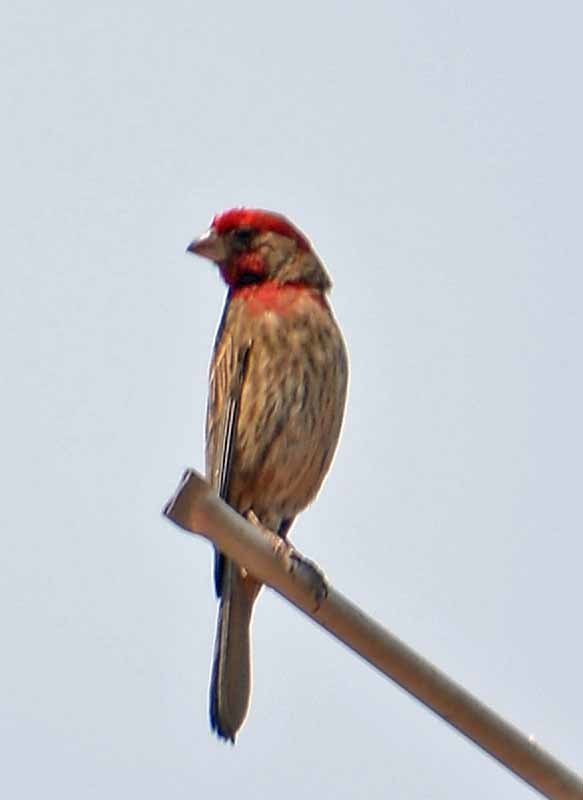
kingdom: Animalia
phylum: Chordata
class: Aves
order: Passeriformes
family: Fringillidae
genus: Haemorhous
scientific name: Haemorhous mexicanus
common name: House finch
